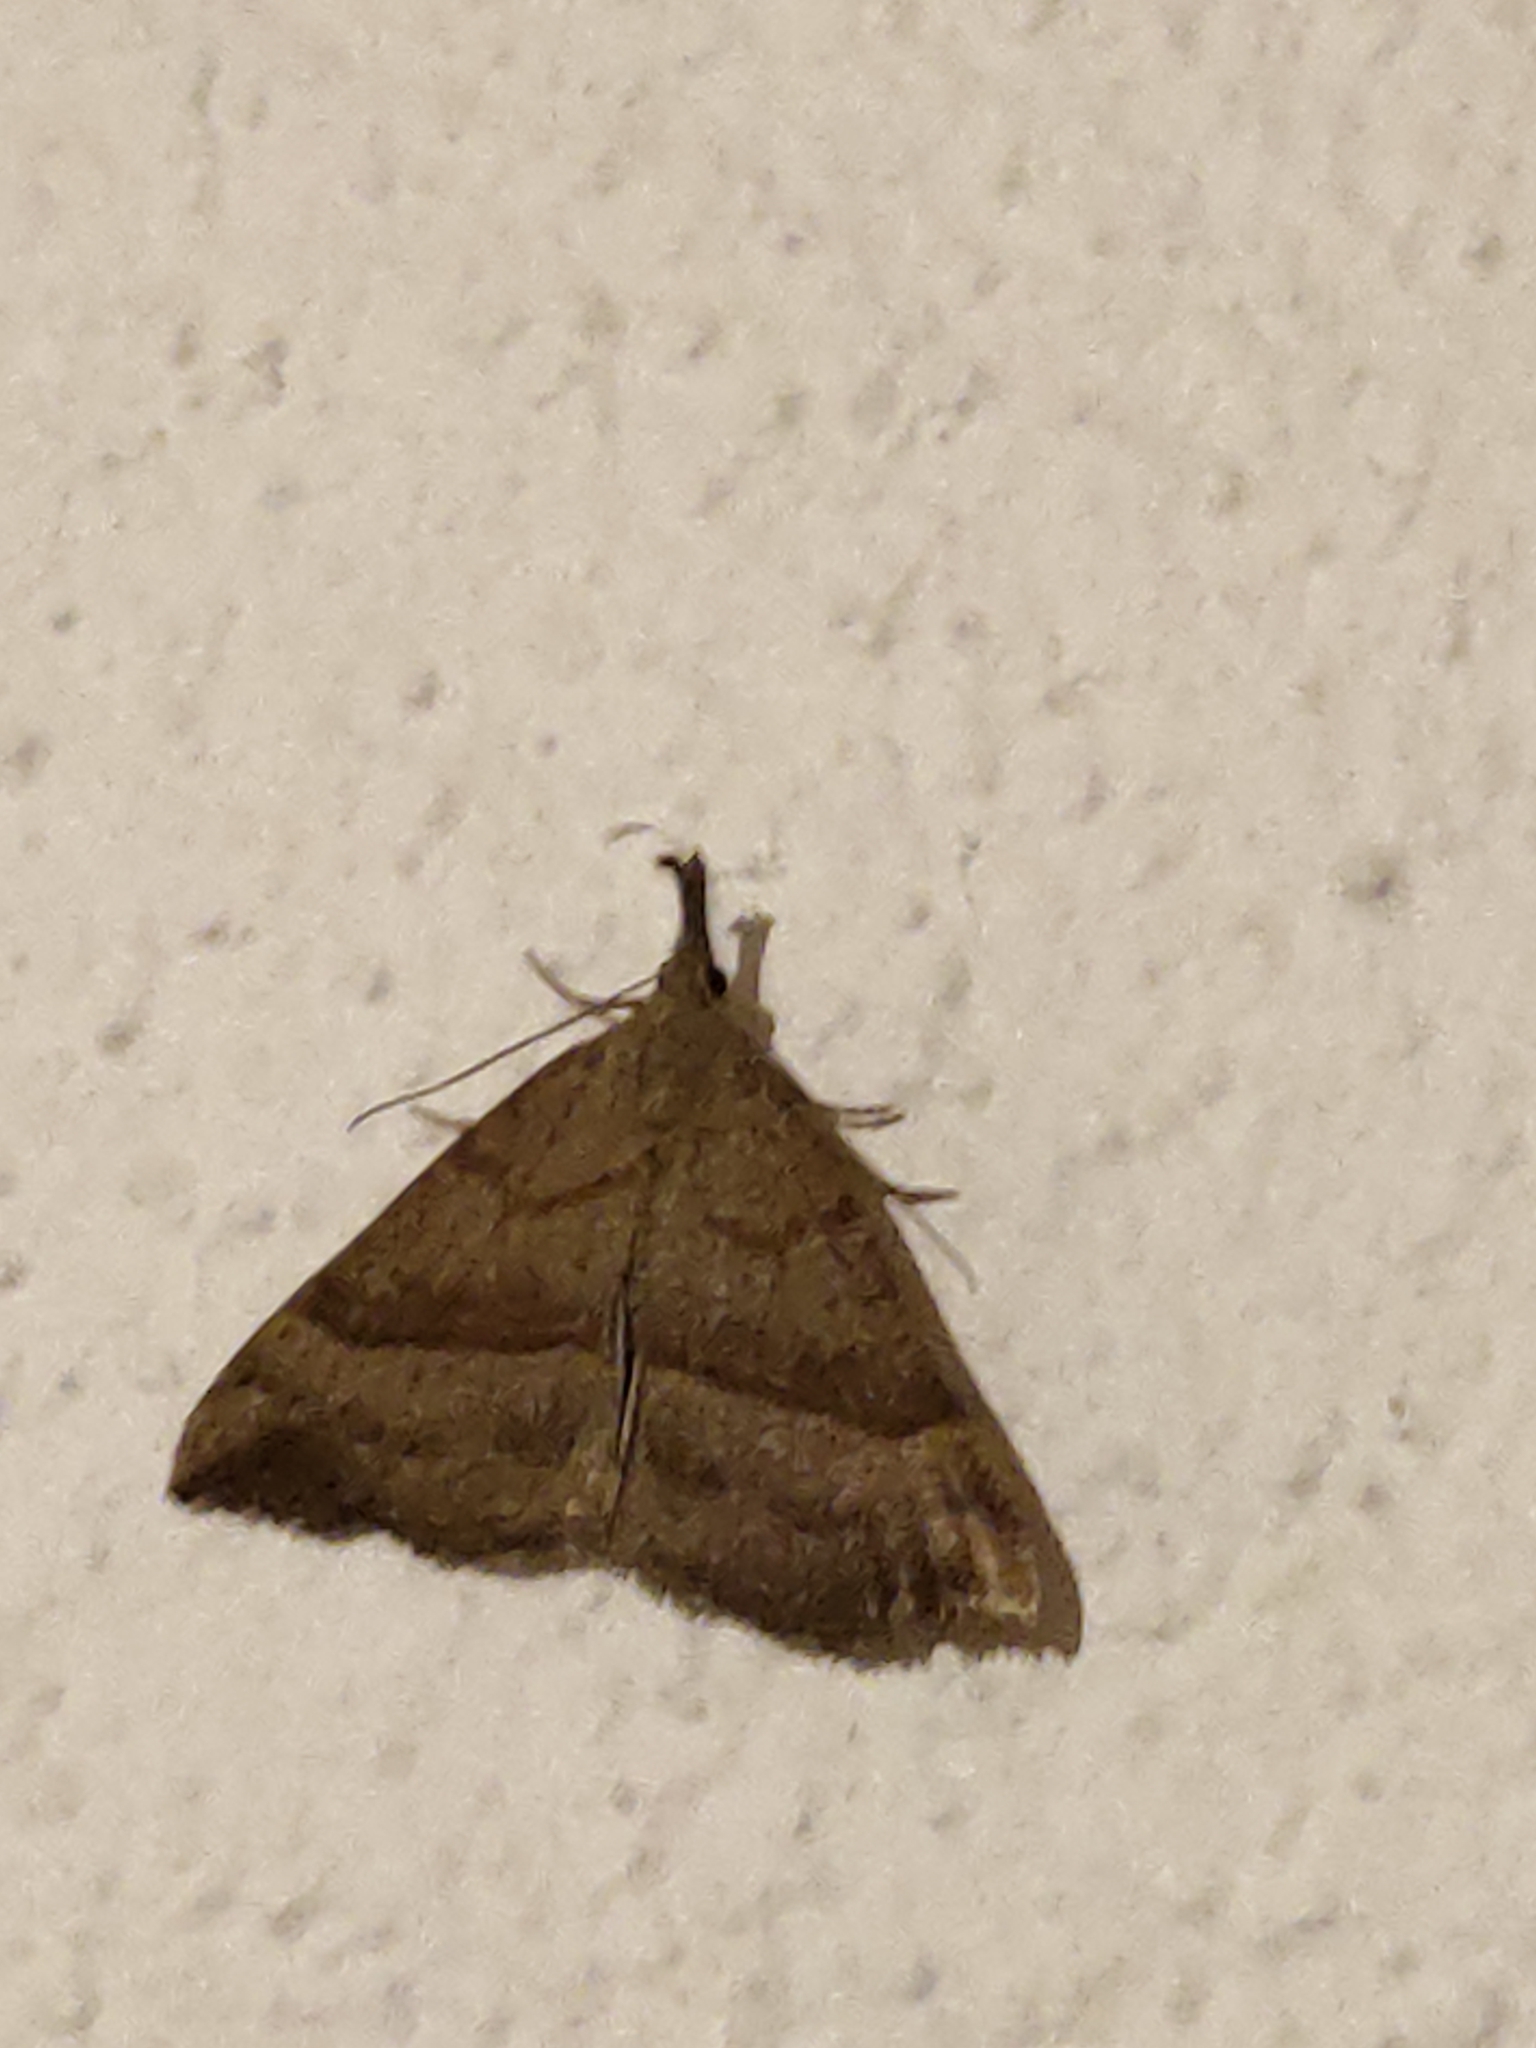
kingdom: Animalia
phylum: Arthropoda
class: Insecta
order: Lepidoptera
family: Erebidae
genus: Hypena
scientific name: Hypena proboscidalis
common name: Snout
